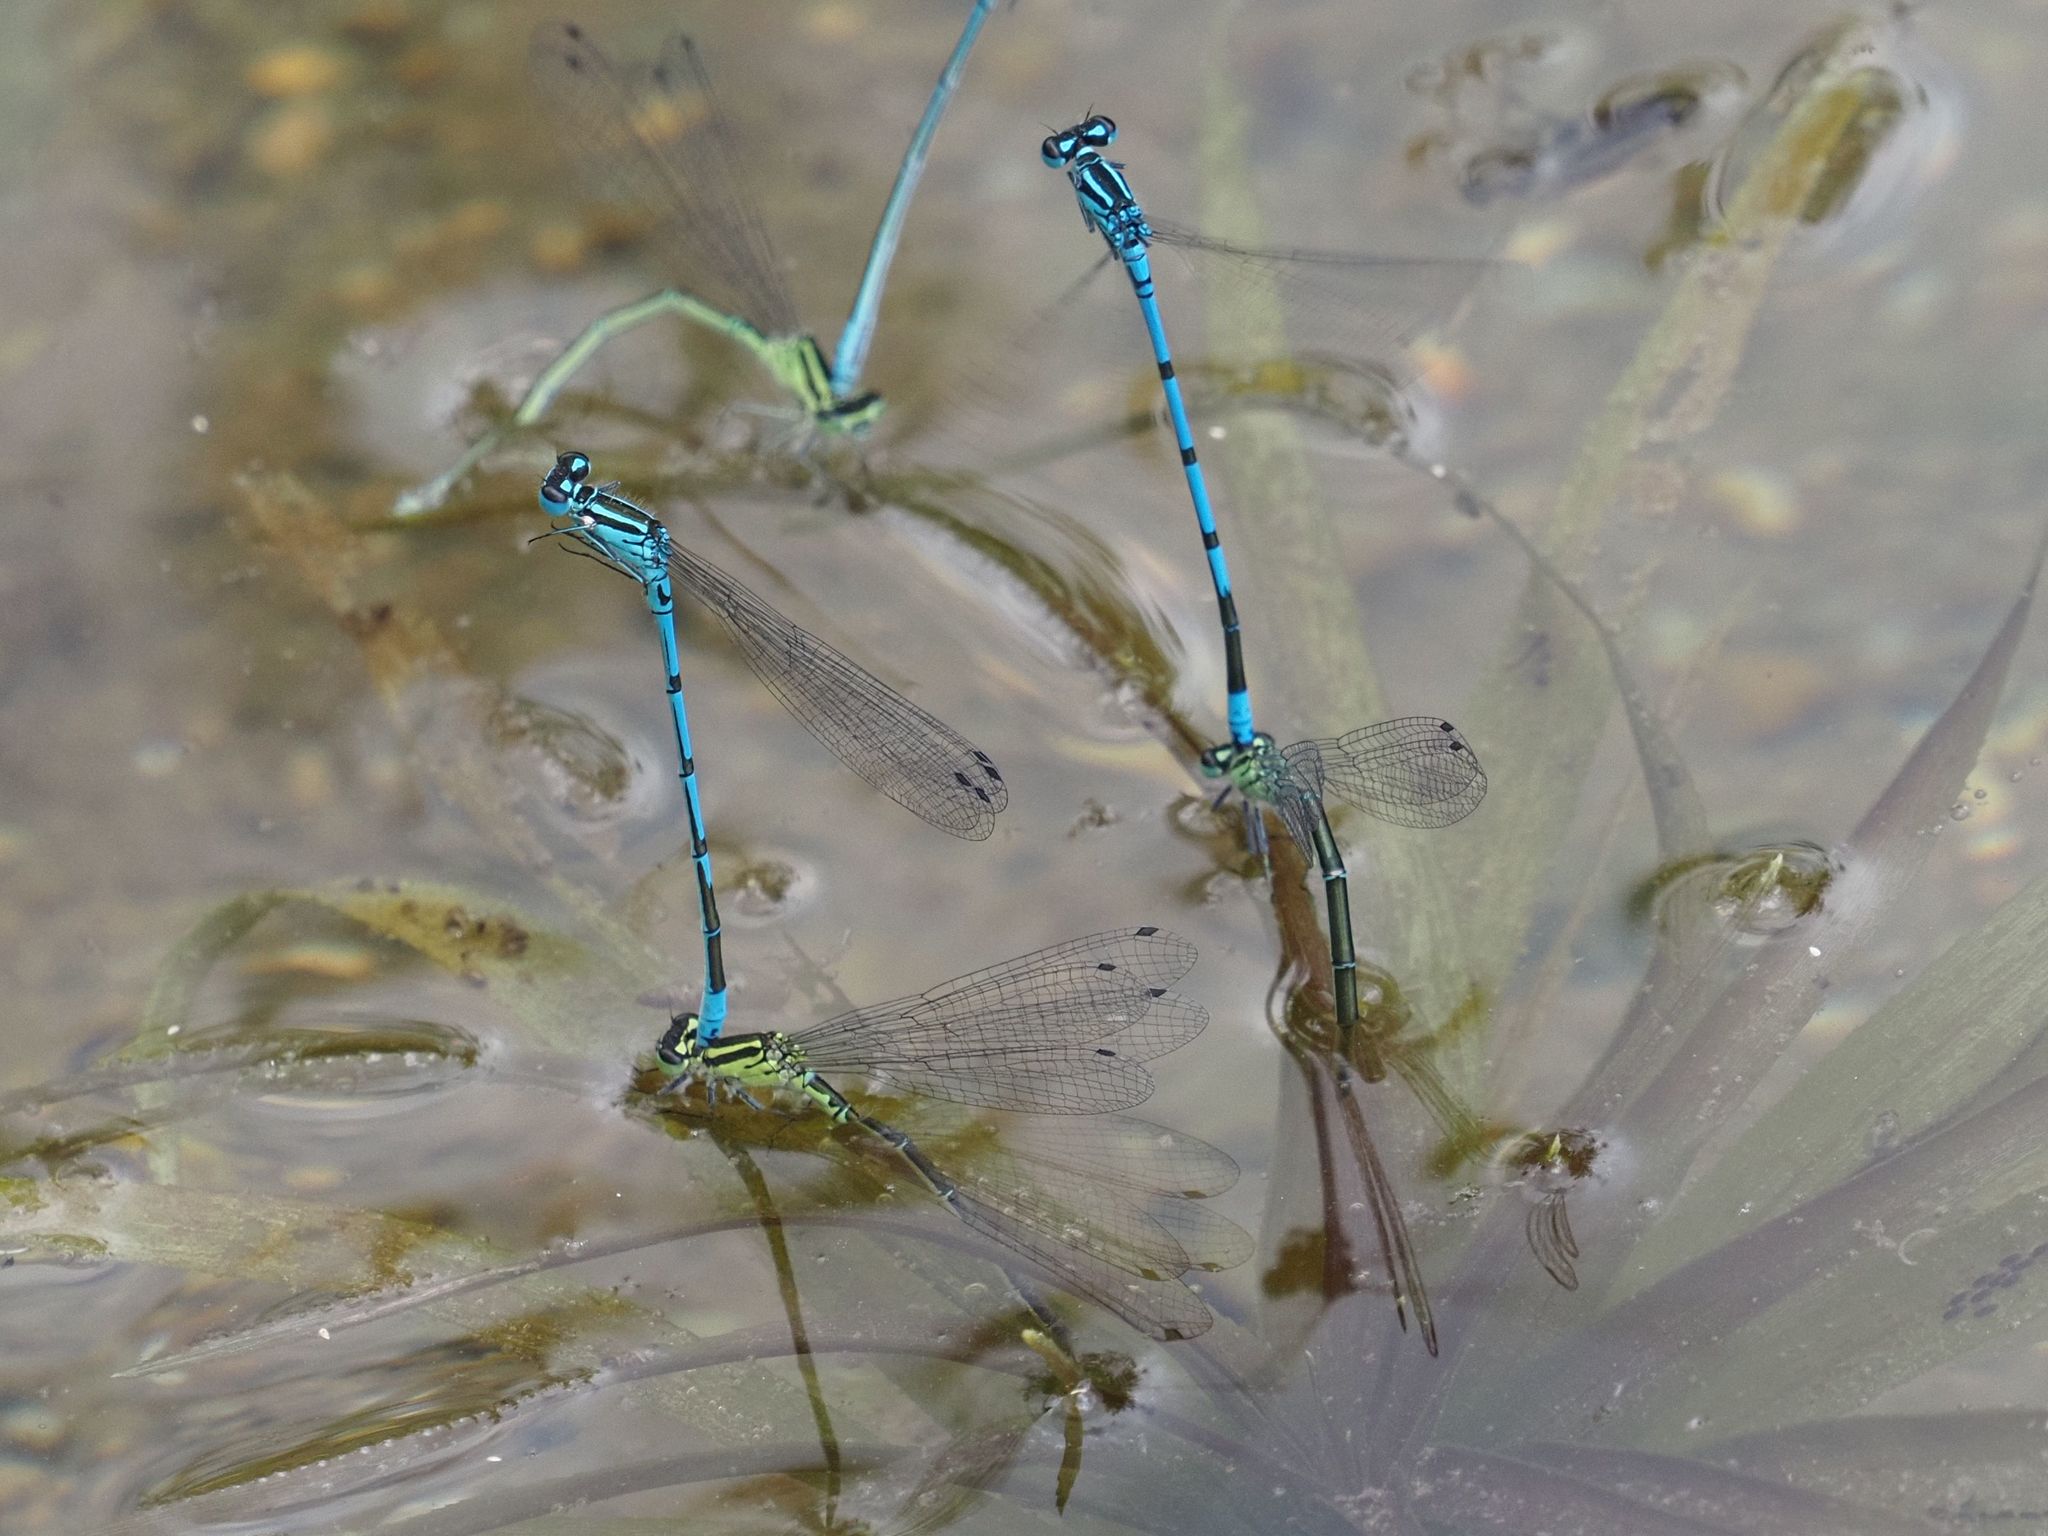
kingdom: Animalia
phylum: Arthropoda
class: Insecta
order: Odonata
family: Coenagrionidae
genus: Coenagrion
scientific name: Coenagrion puella
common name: Azure damselfly
